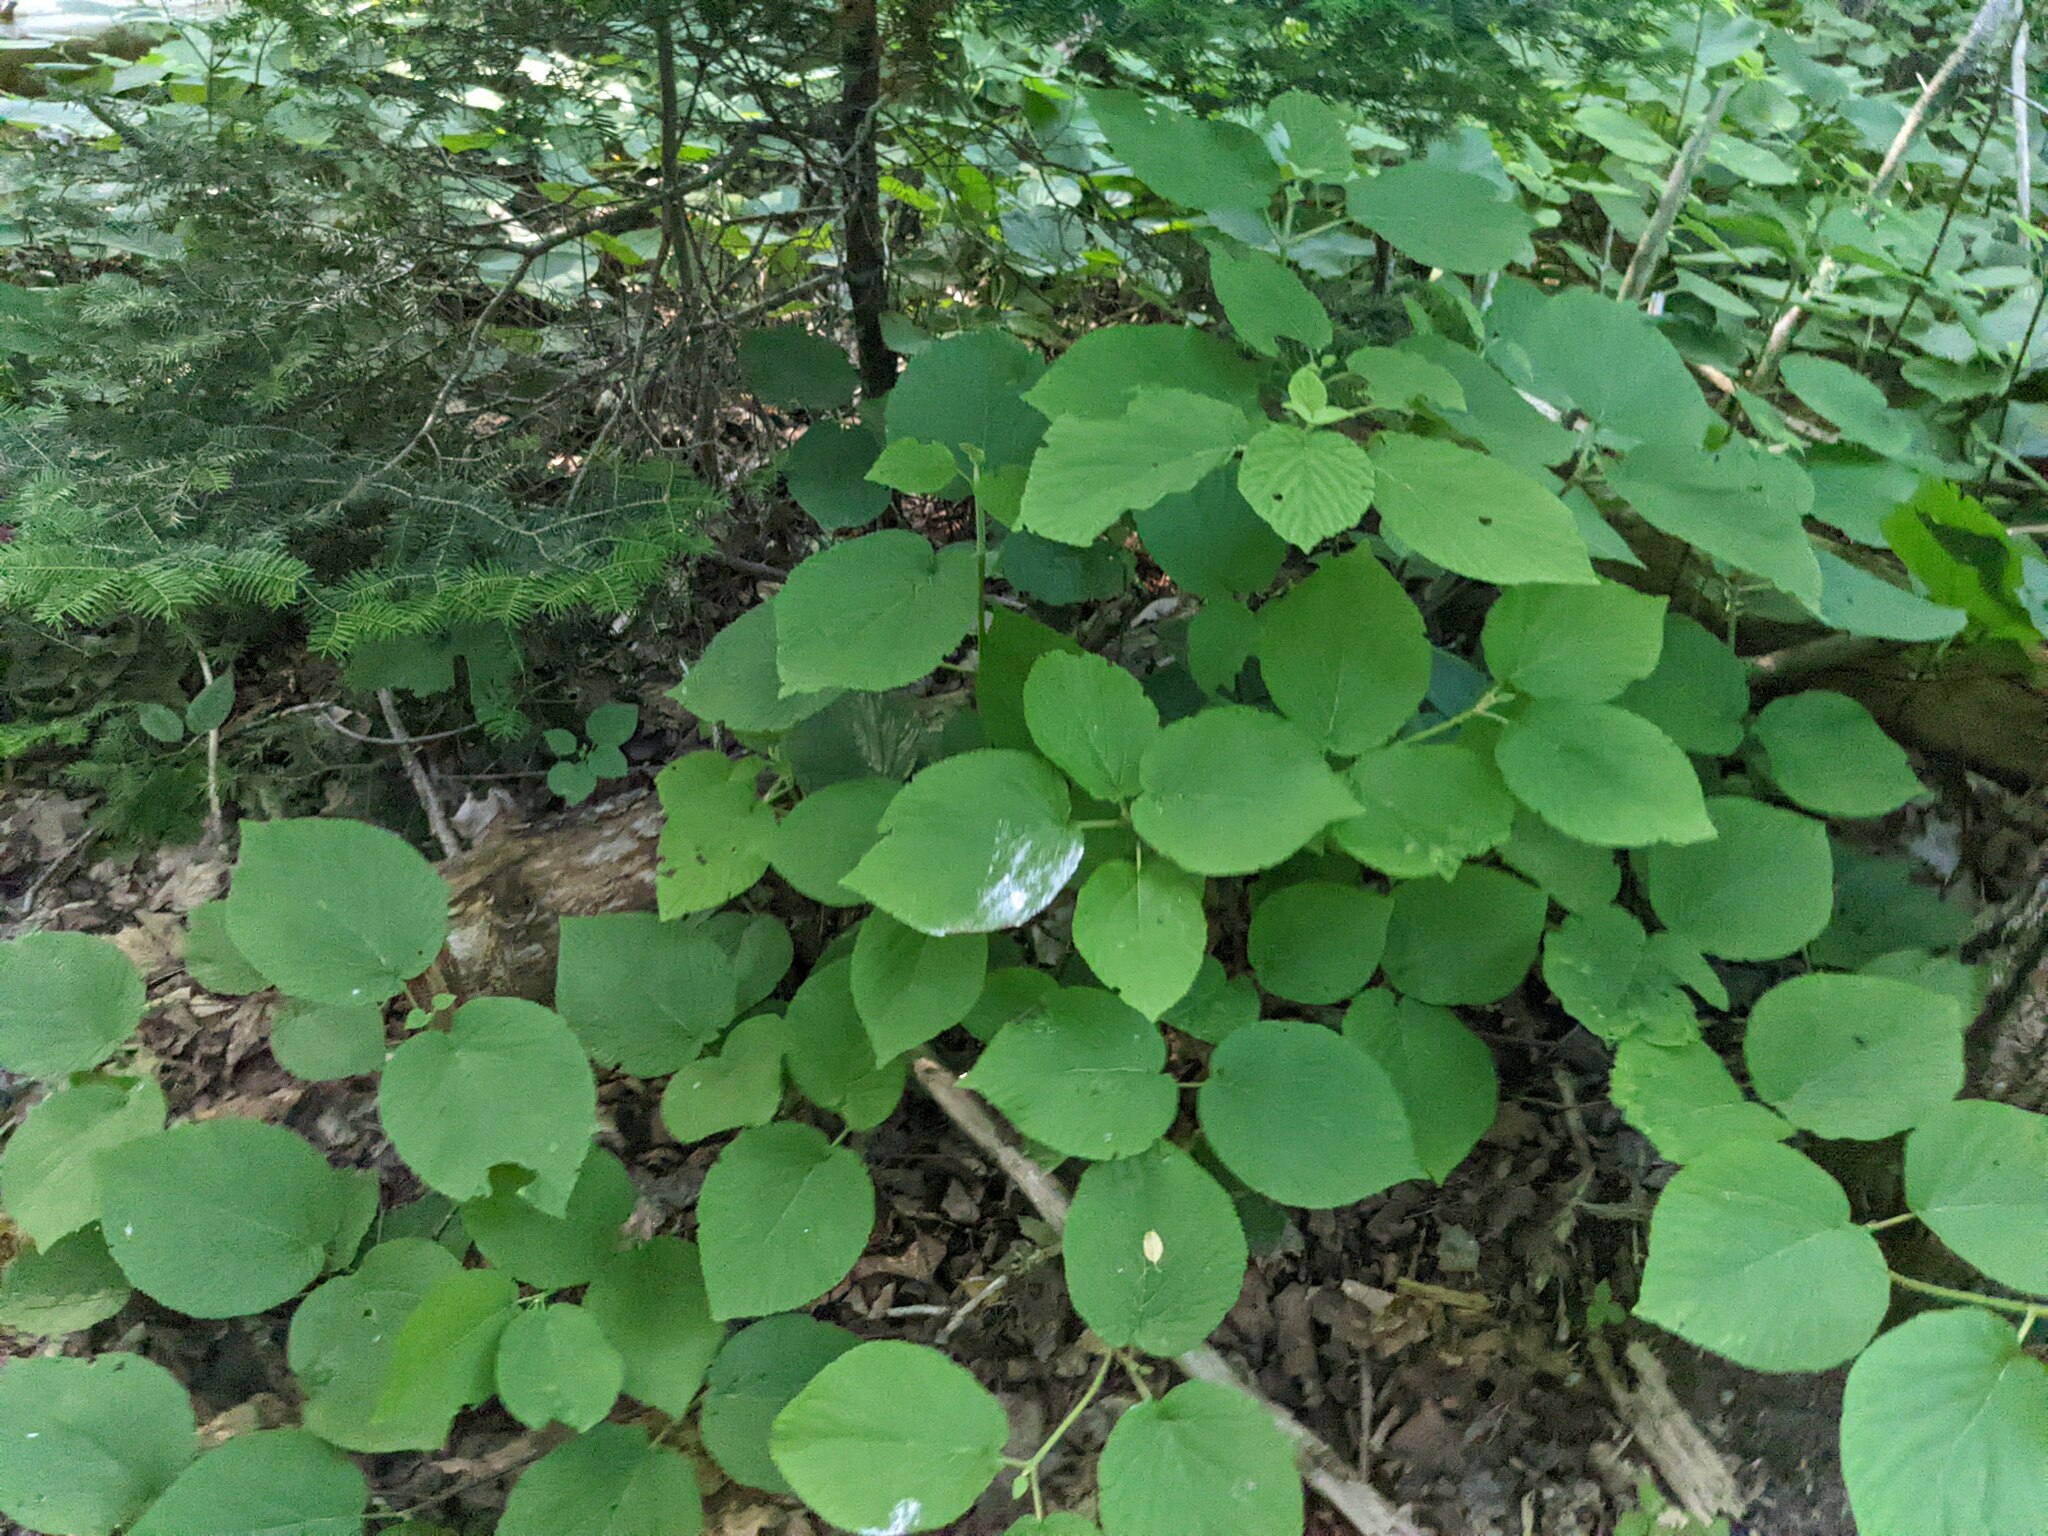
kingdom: Plantae
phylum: Tracheophyta
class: Magnoliopsida
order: Dipsacales
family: Viburnaceae
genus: Viburnum
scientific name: Viburnum lantanoides
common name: Hobblebush
